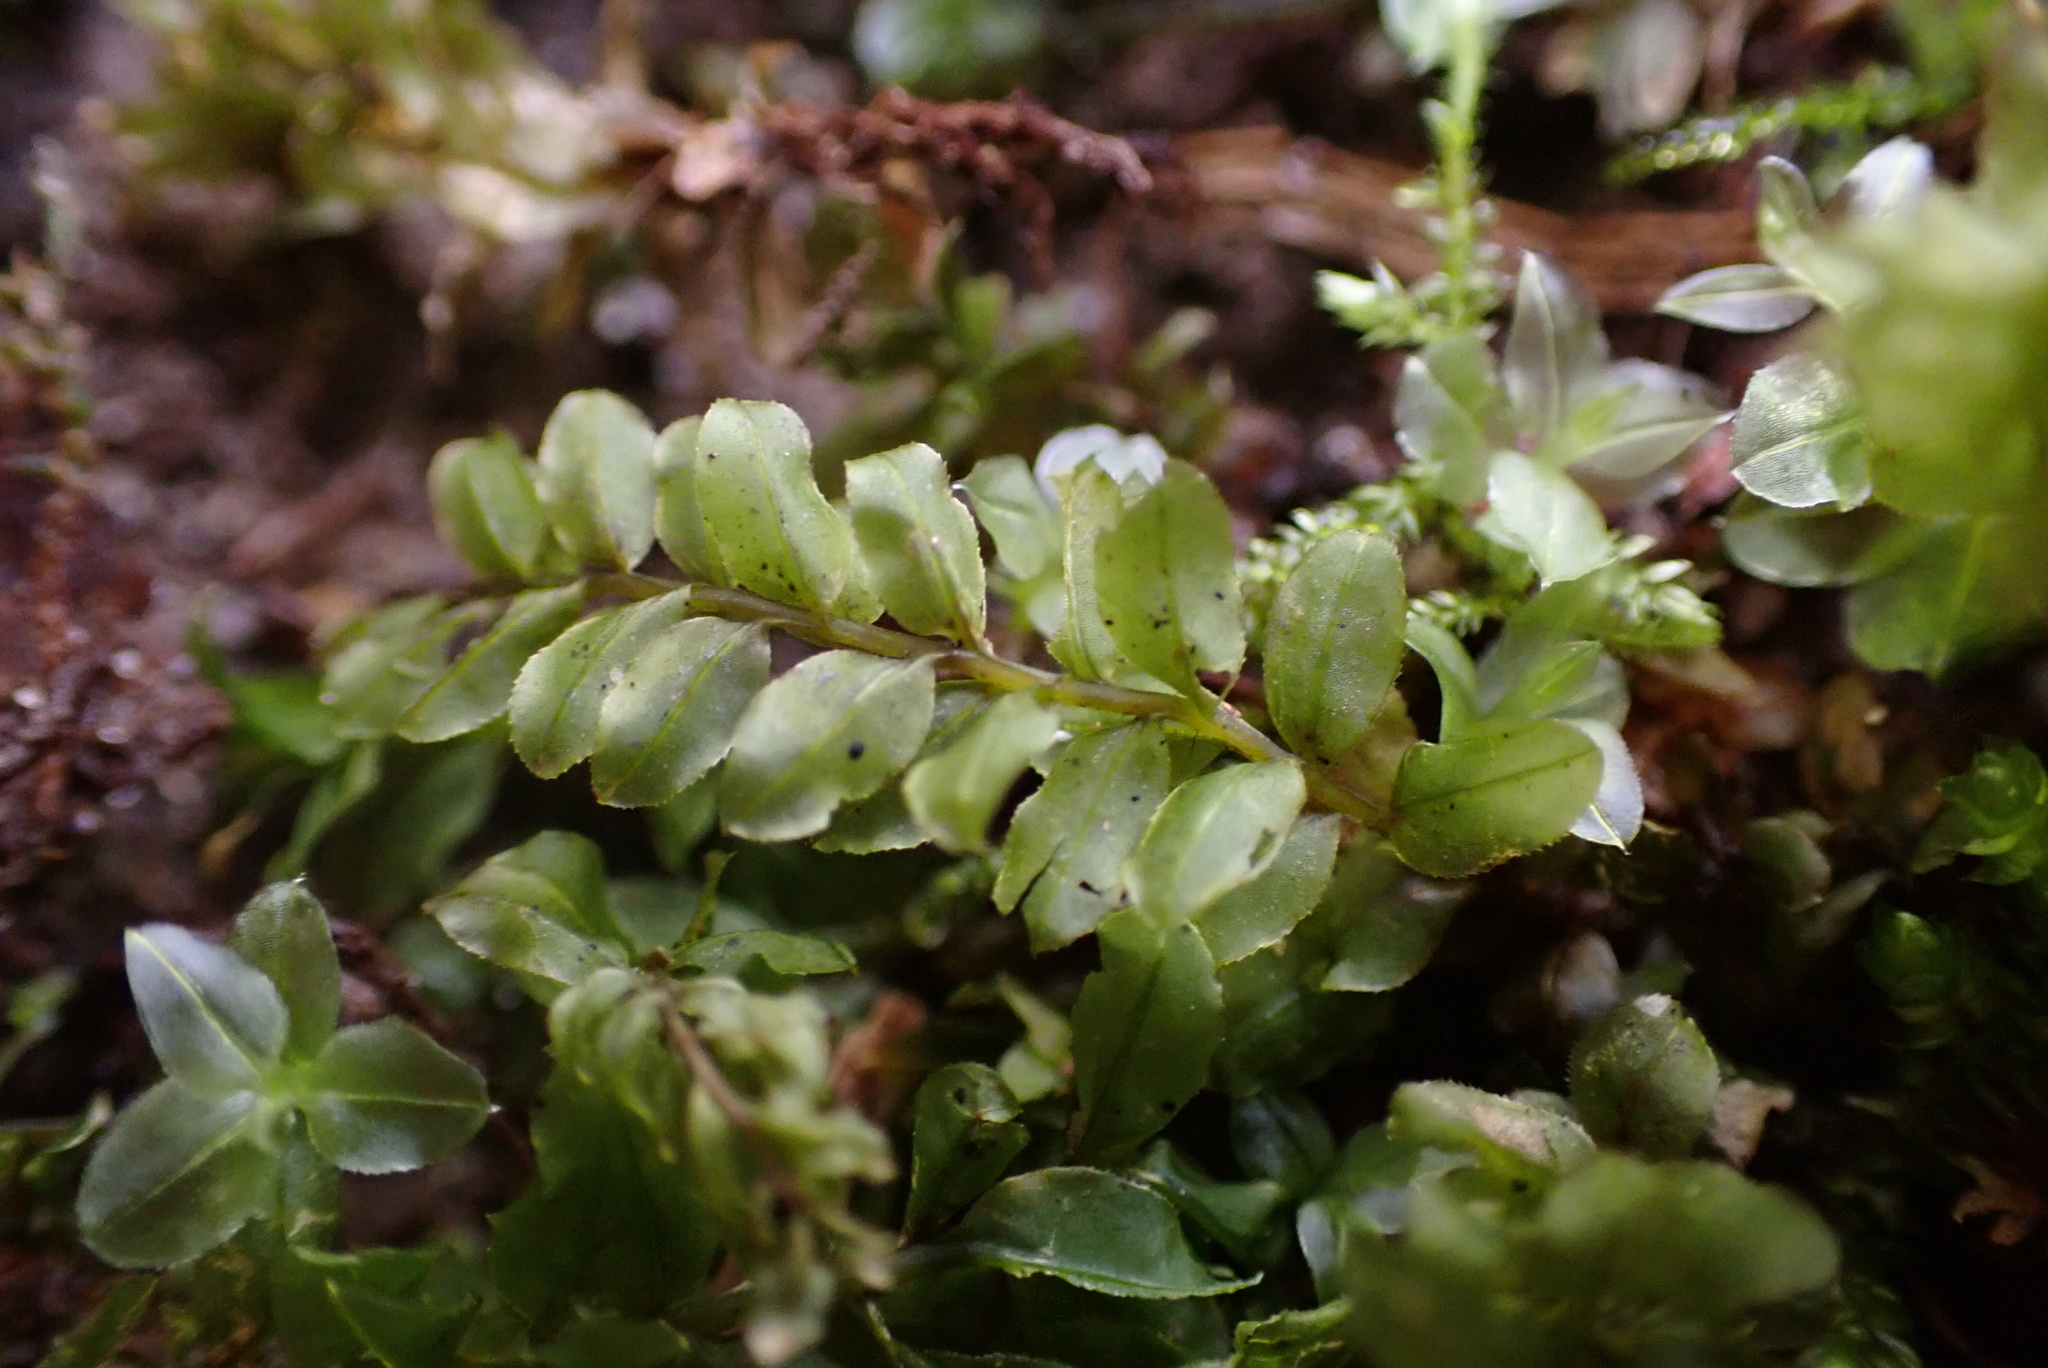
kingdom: Plantae
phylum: Bryophyta
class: Bryopsida
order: Bryales
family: Mniaceae
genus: Plagiomnium
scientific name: Plagiomnium ciliare
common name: Toothed leafy moss
